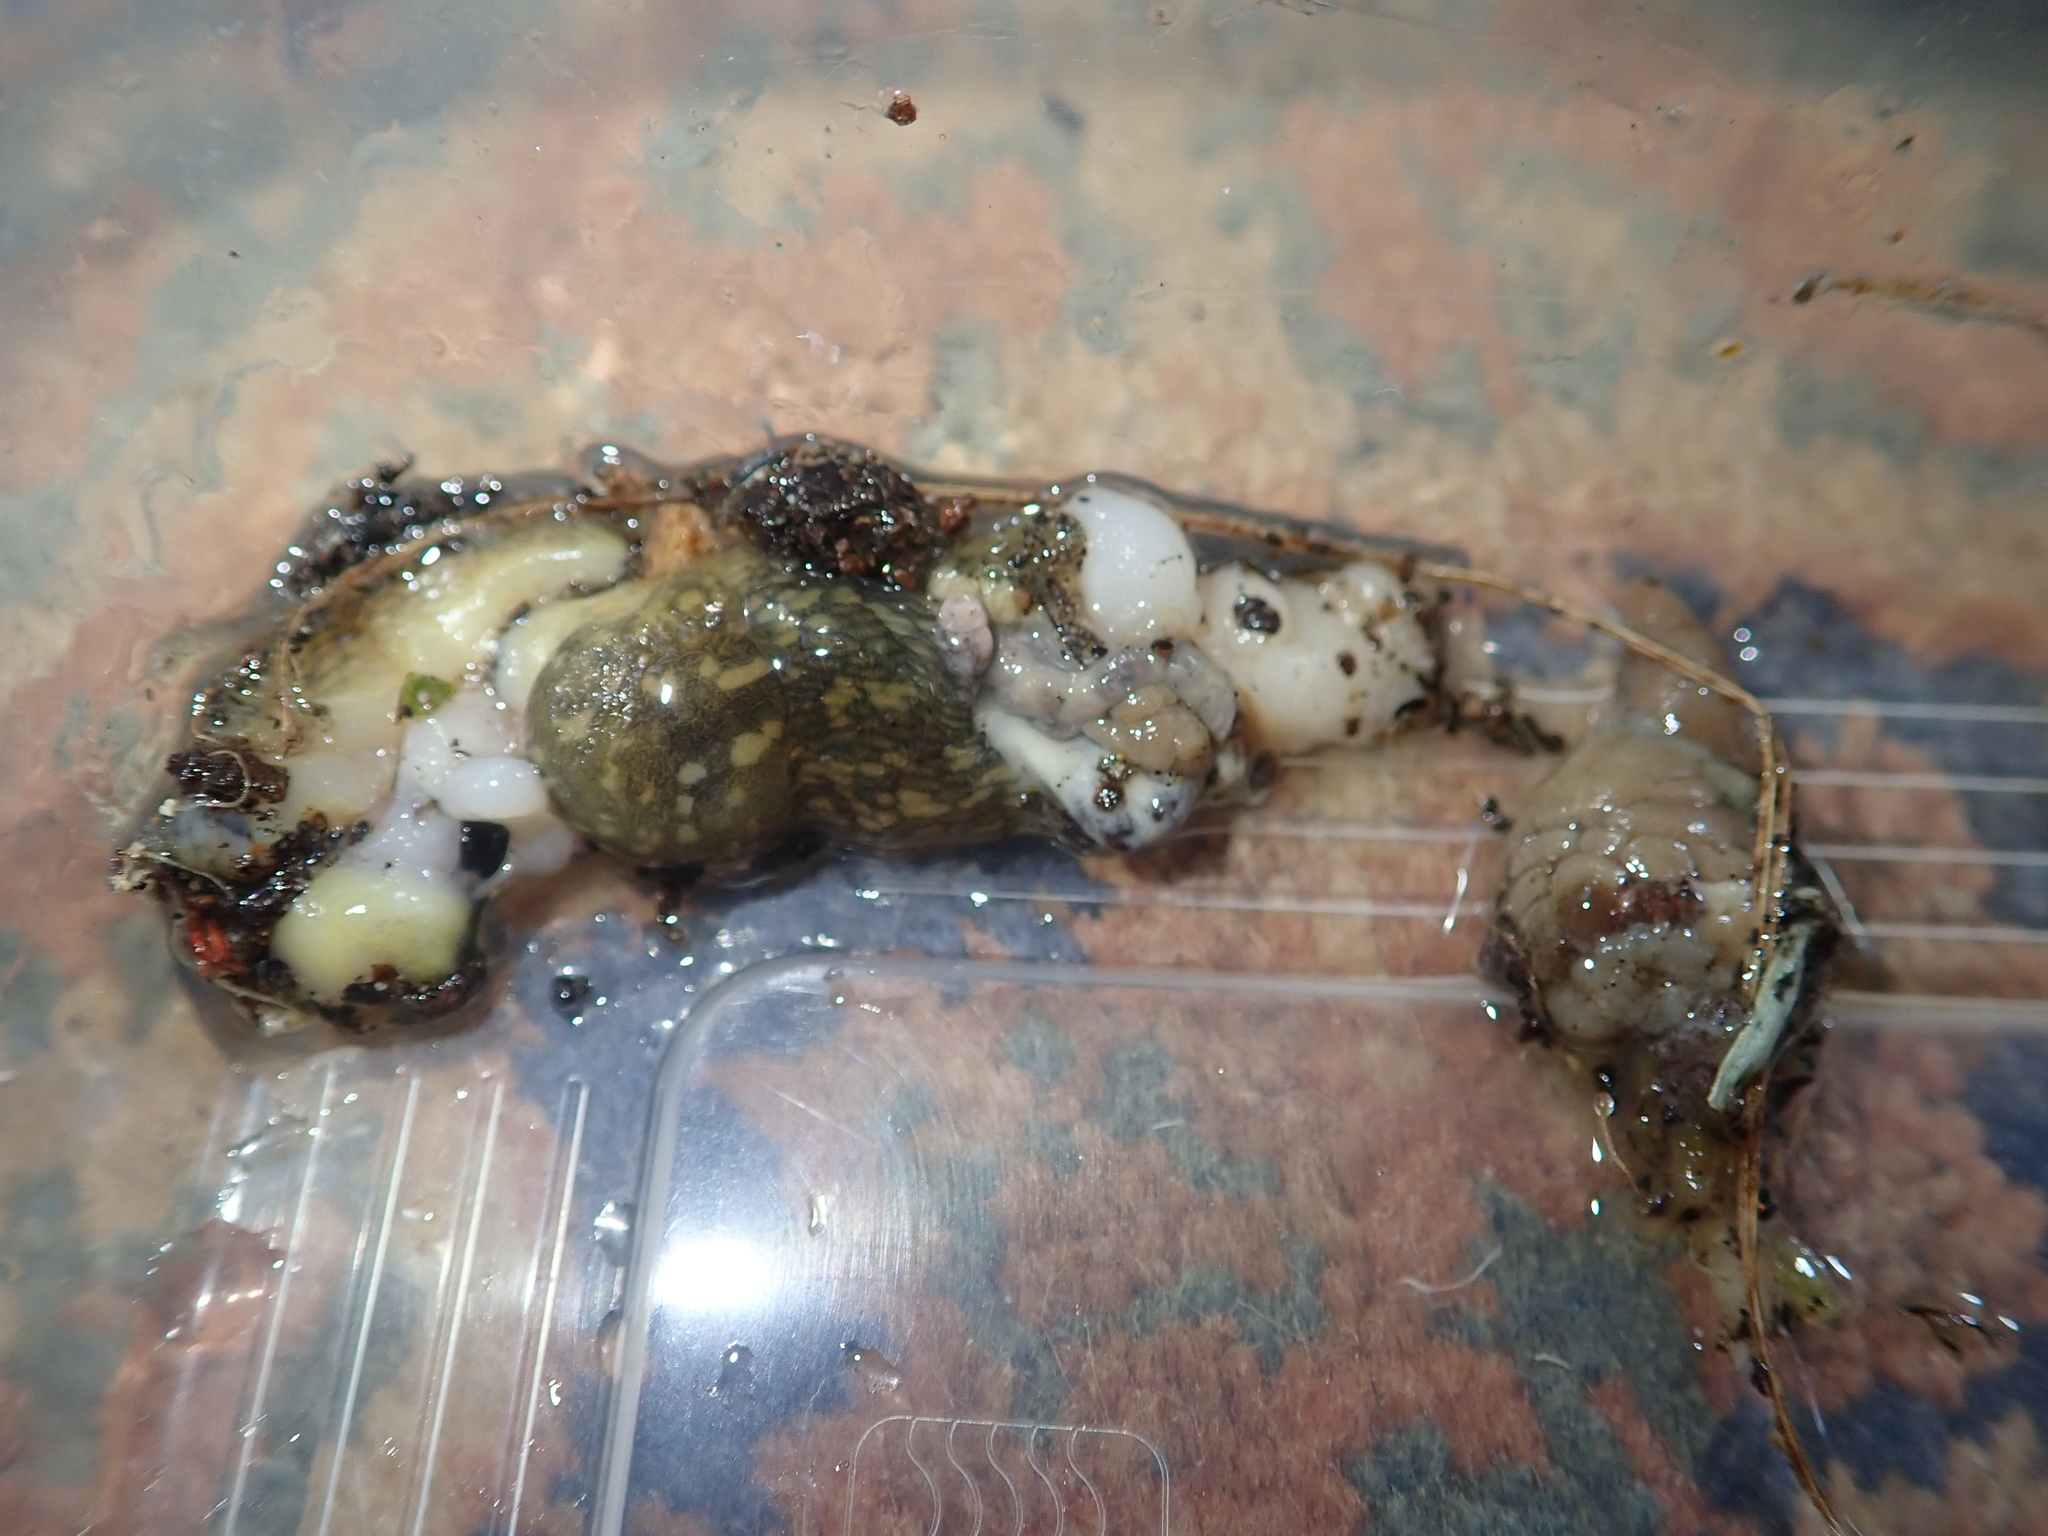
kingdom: Animalia
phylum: Mollusca
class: Gastropoda
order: Stylommatophora
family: Limacidae
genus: Limacus
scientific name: Limacus
